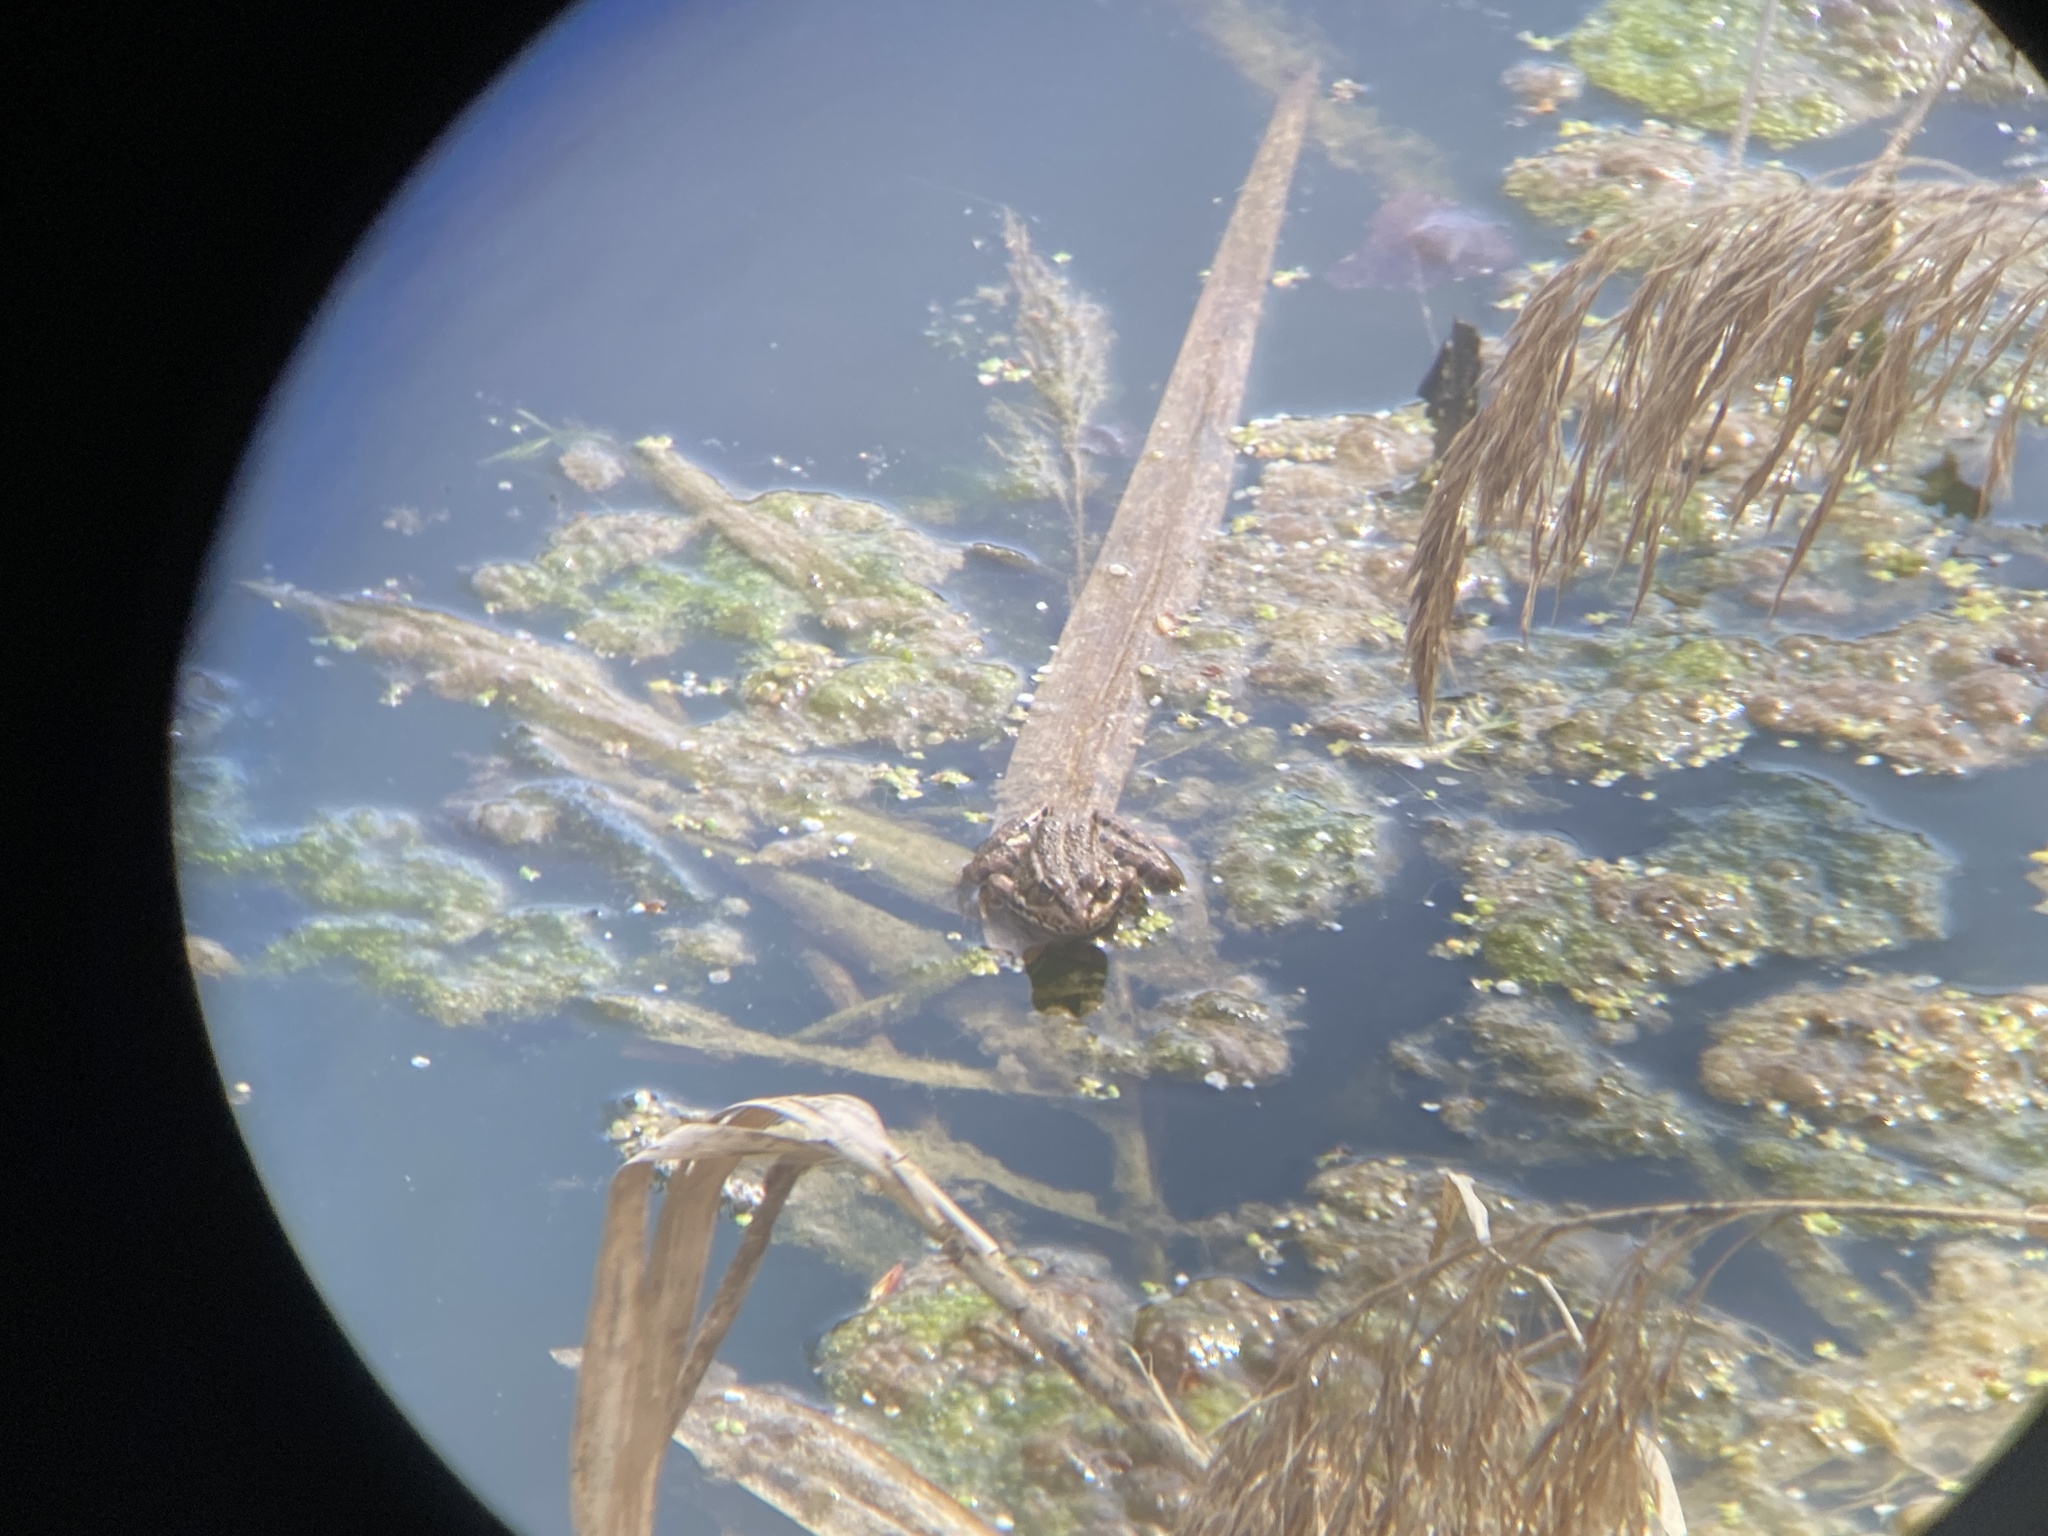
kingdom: Animalia
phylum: Chordata
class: Amphibia
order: Anura
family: Ranidae
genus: Pelophylax
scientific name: Pelophylax perezi
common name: Perez's frog
